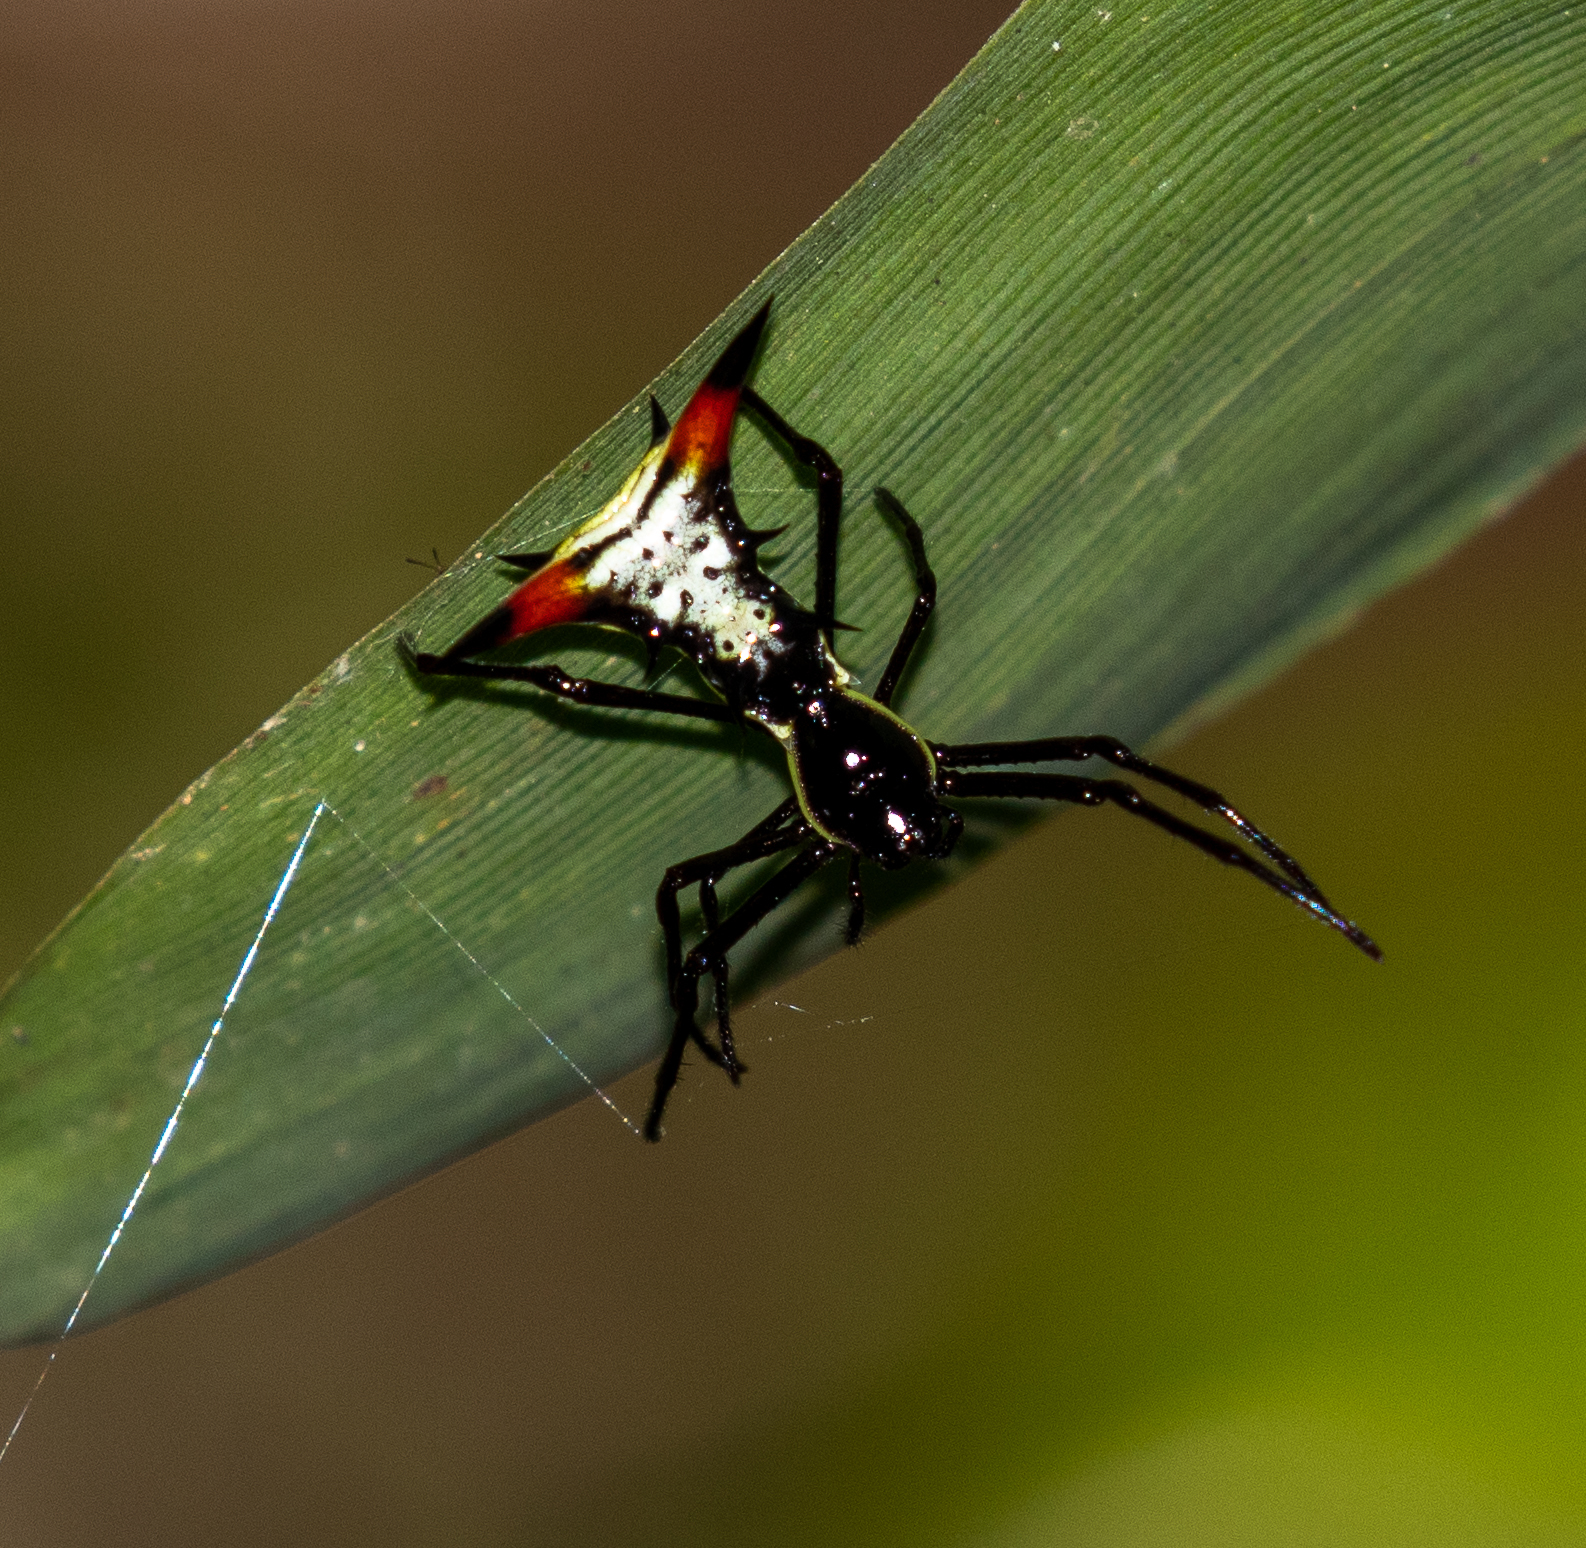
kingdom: Animalia
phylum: Arthropoda
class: Arachnida
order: Araneae
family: Araneidae
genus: Micrathena
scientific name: Micrathena schreibersi
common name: Orb weavers
